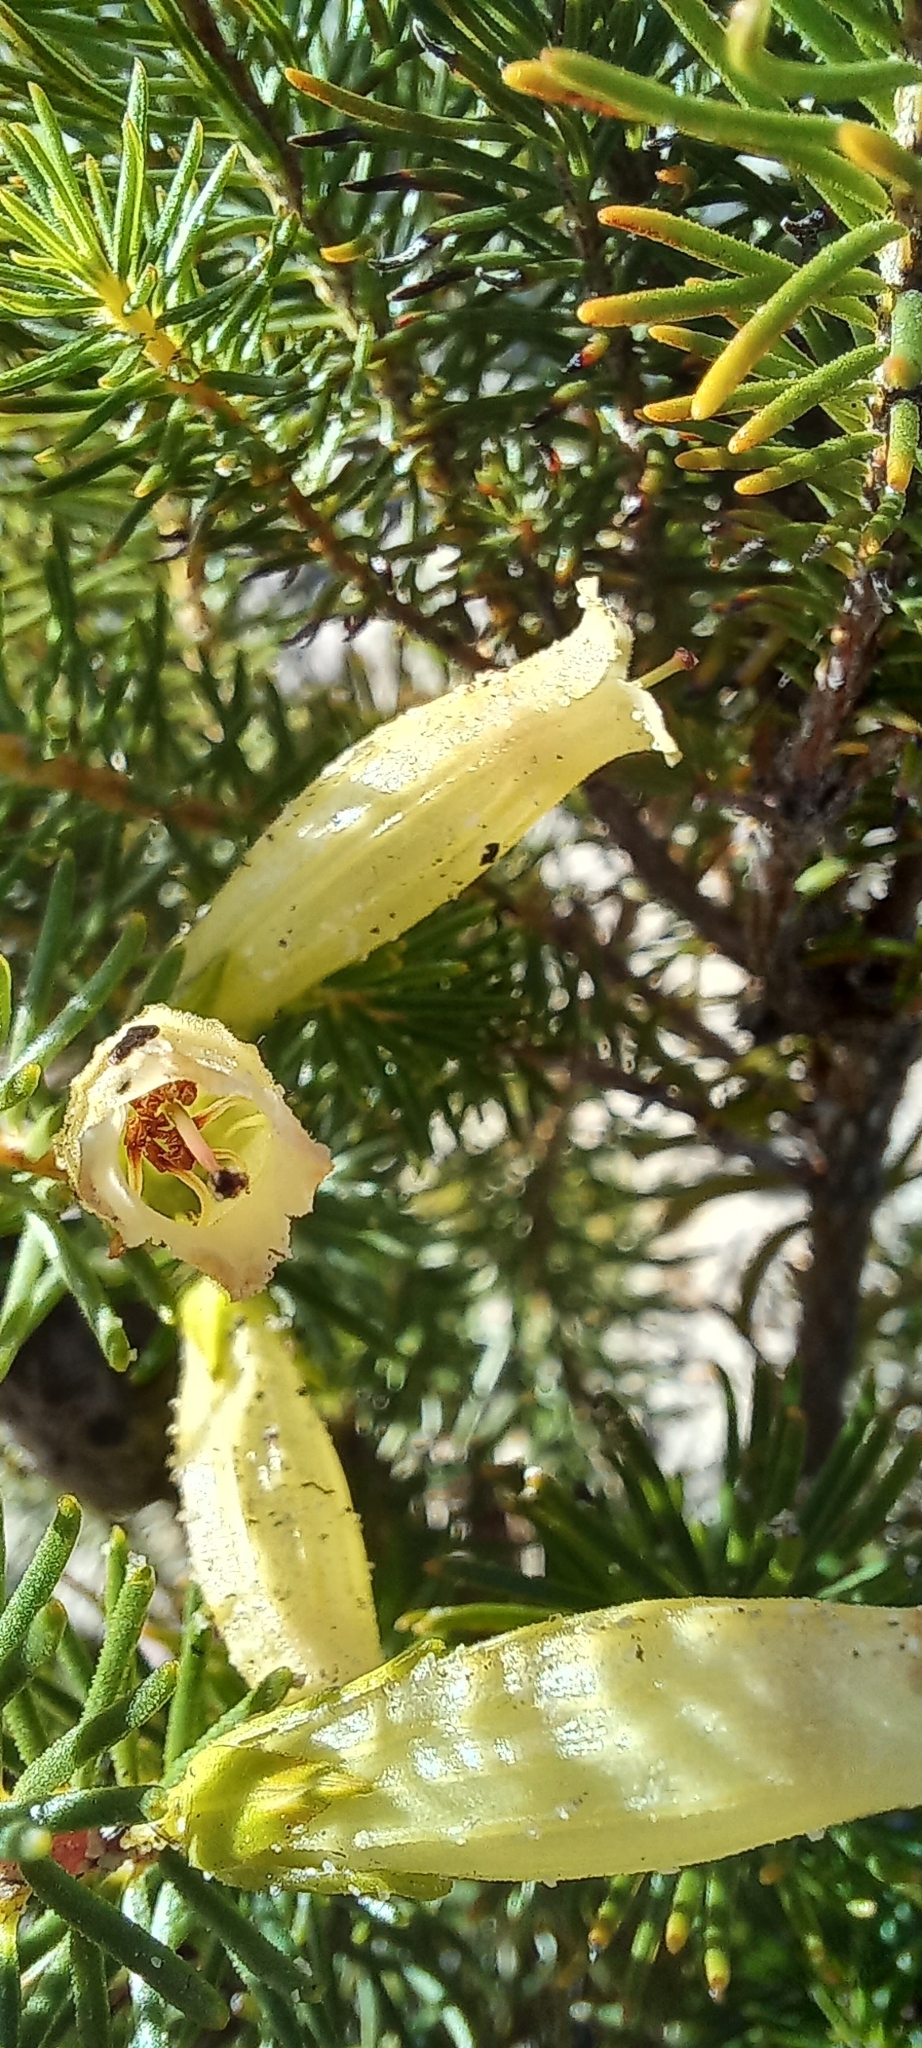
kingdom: Plantae
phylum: Tracheophyta
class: Magnoliopsida
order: Ericales
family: Ericaceae
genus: Erica
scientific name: Erica viscaria
